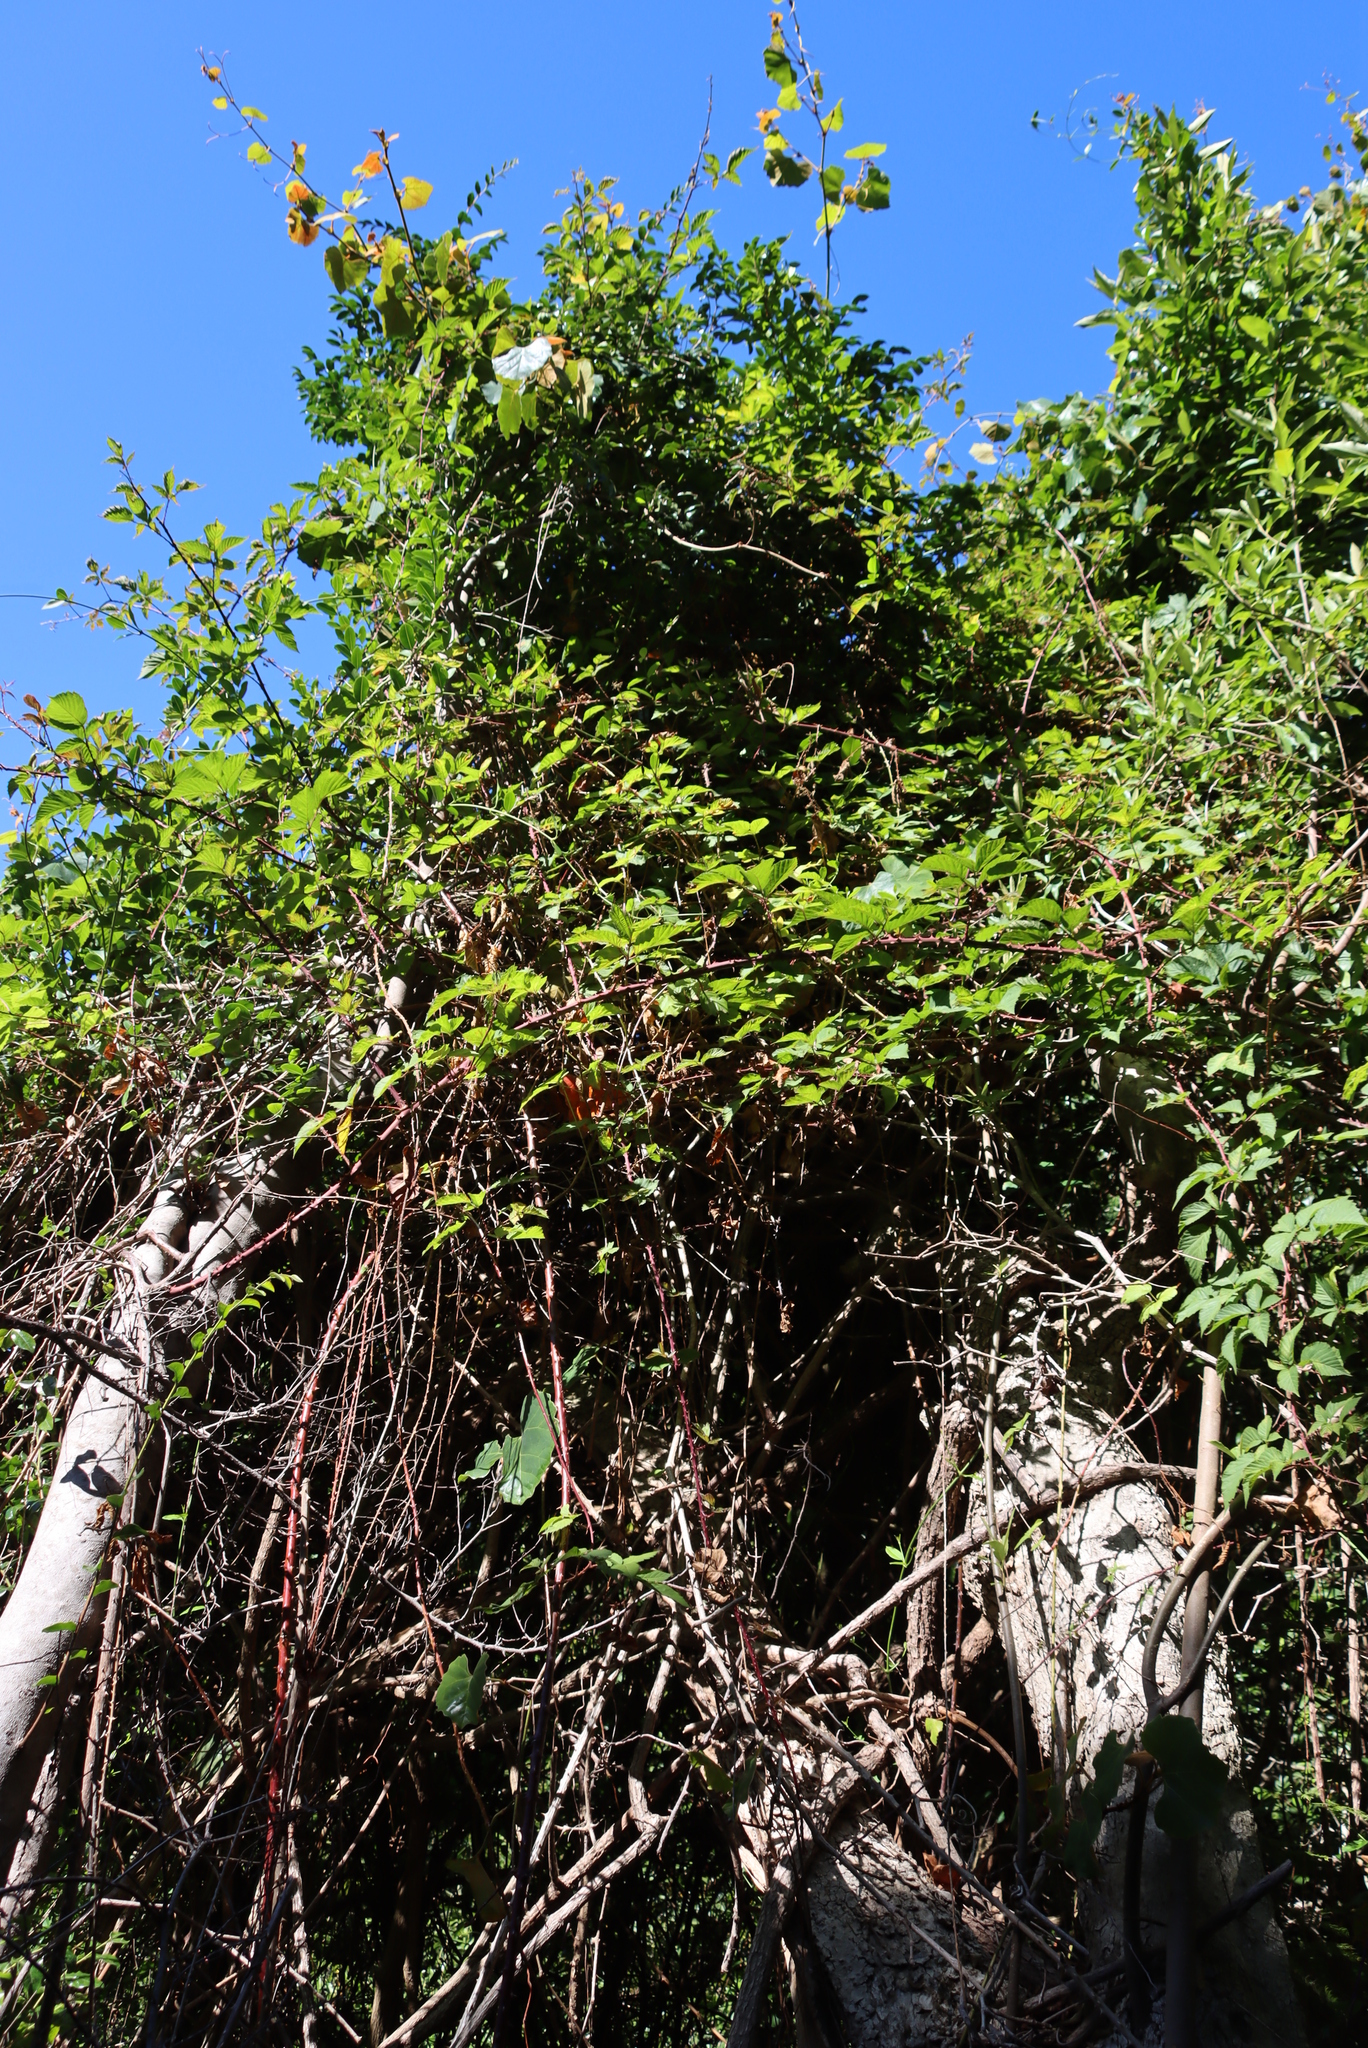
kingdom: Plantae
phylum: Tracheophyta
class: Magnoliopsida
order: Vitales
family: Vitaceae
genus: Rhoicissus
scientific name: Rhoicissus tomentosa
